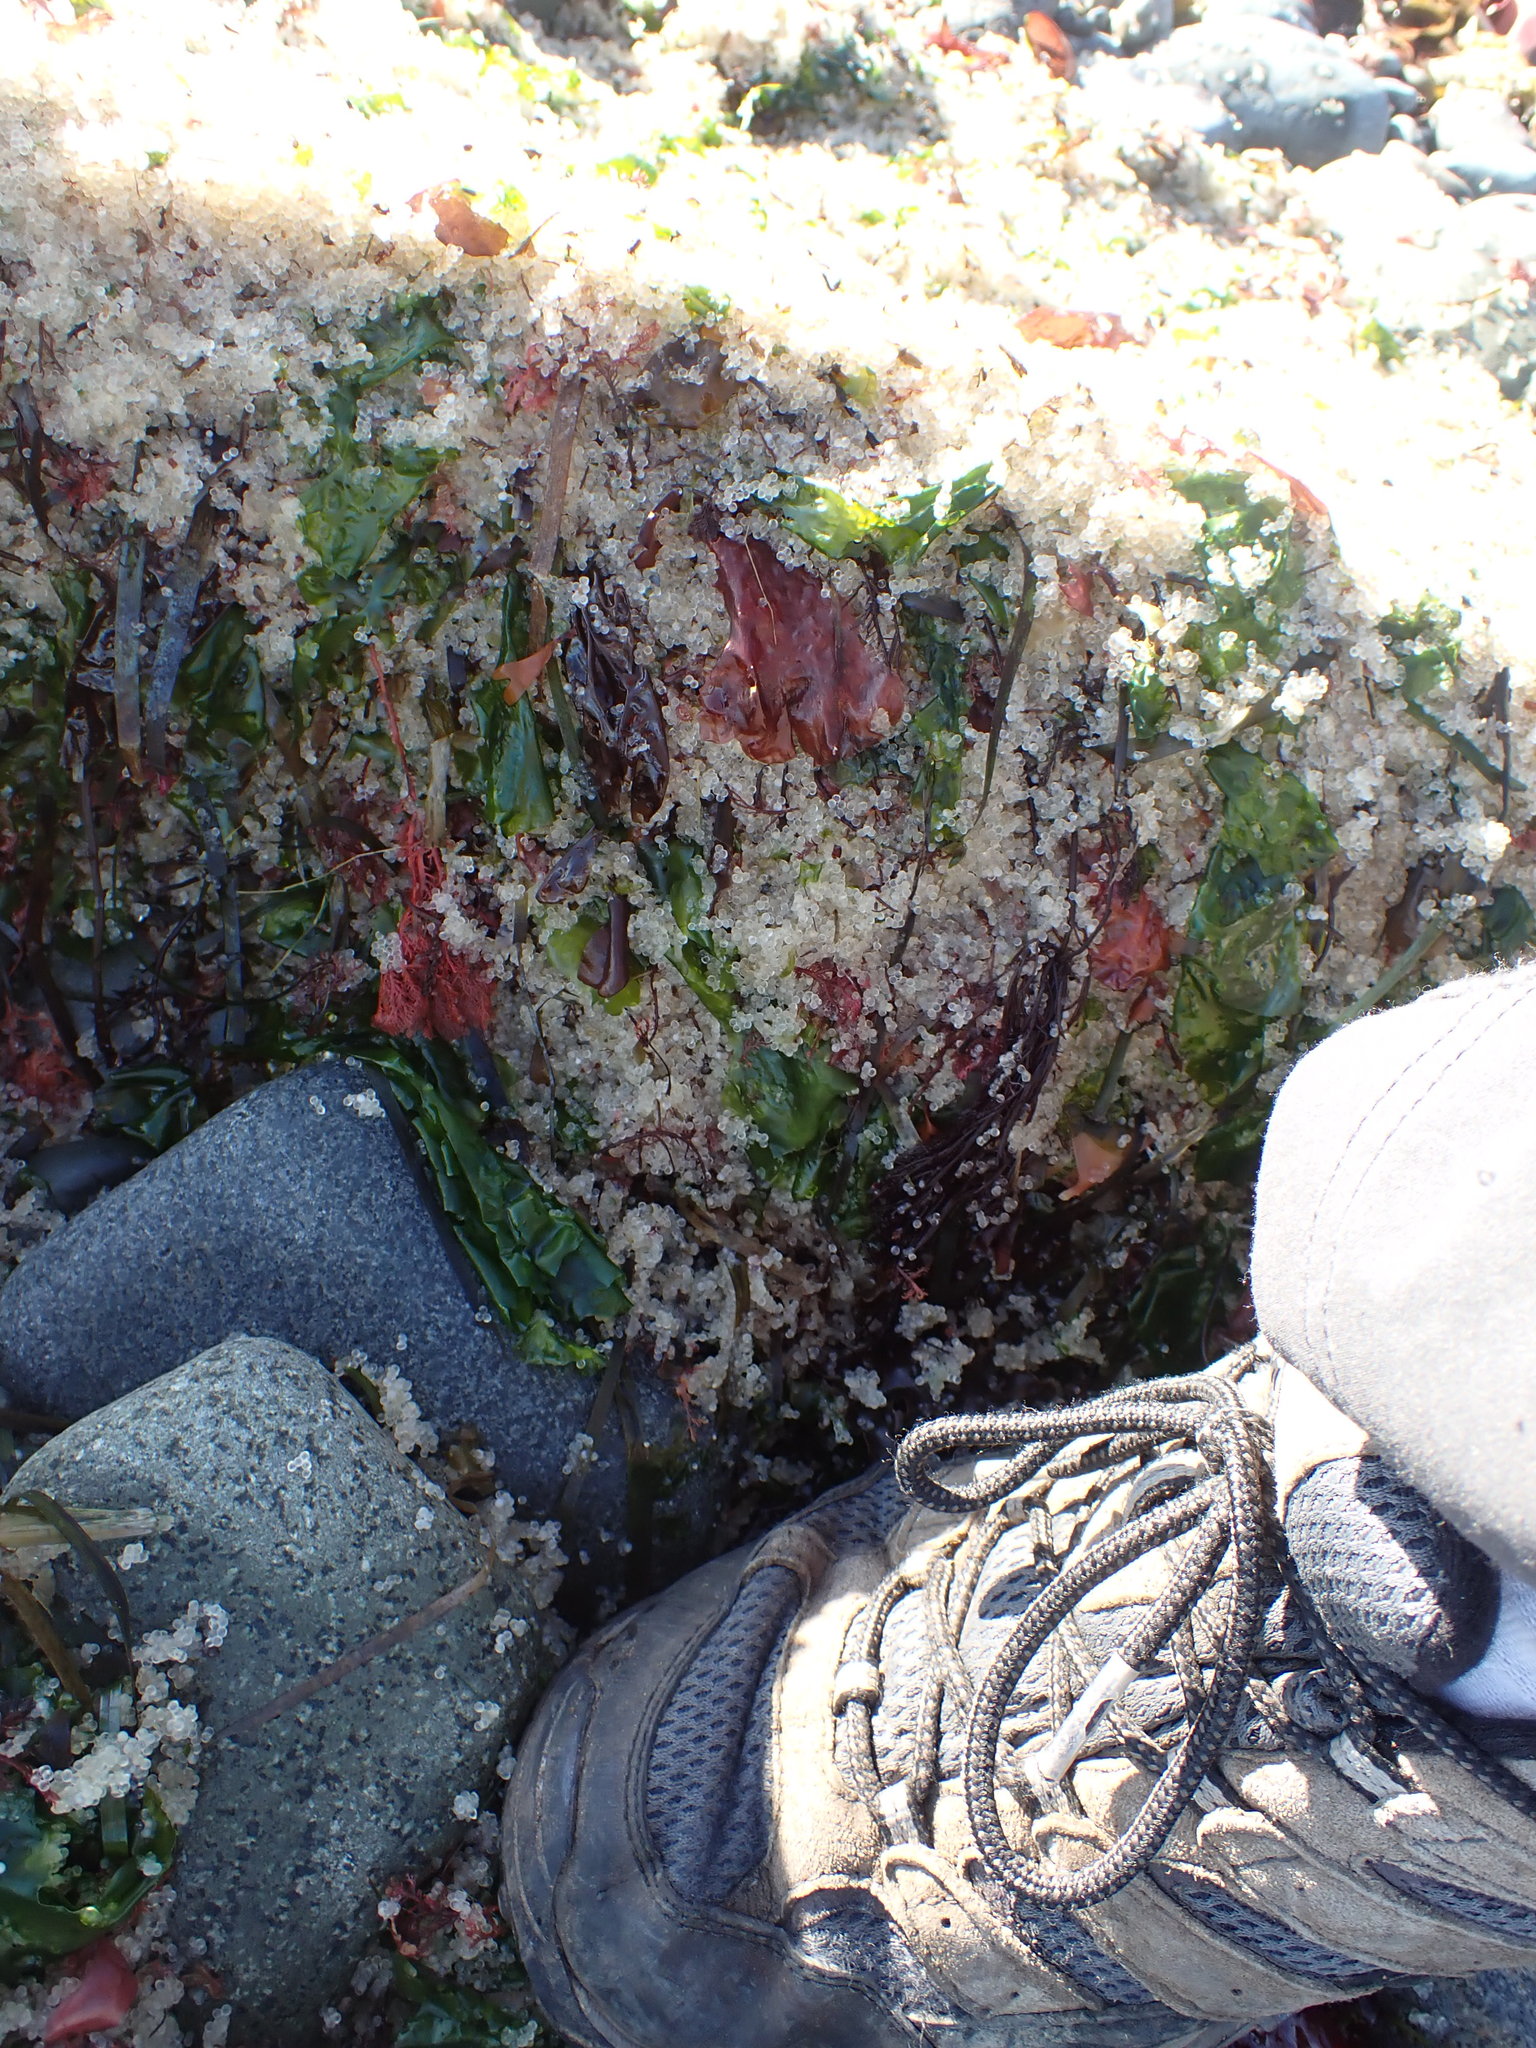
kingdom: Animalia
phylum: Chordata
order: Clupeiformes
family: Clupeidae
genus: Clupea
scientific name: Clupea pallasii
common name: Pacific herring
